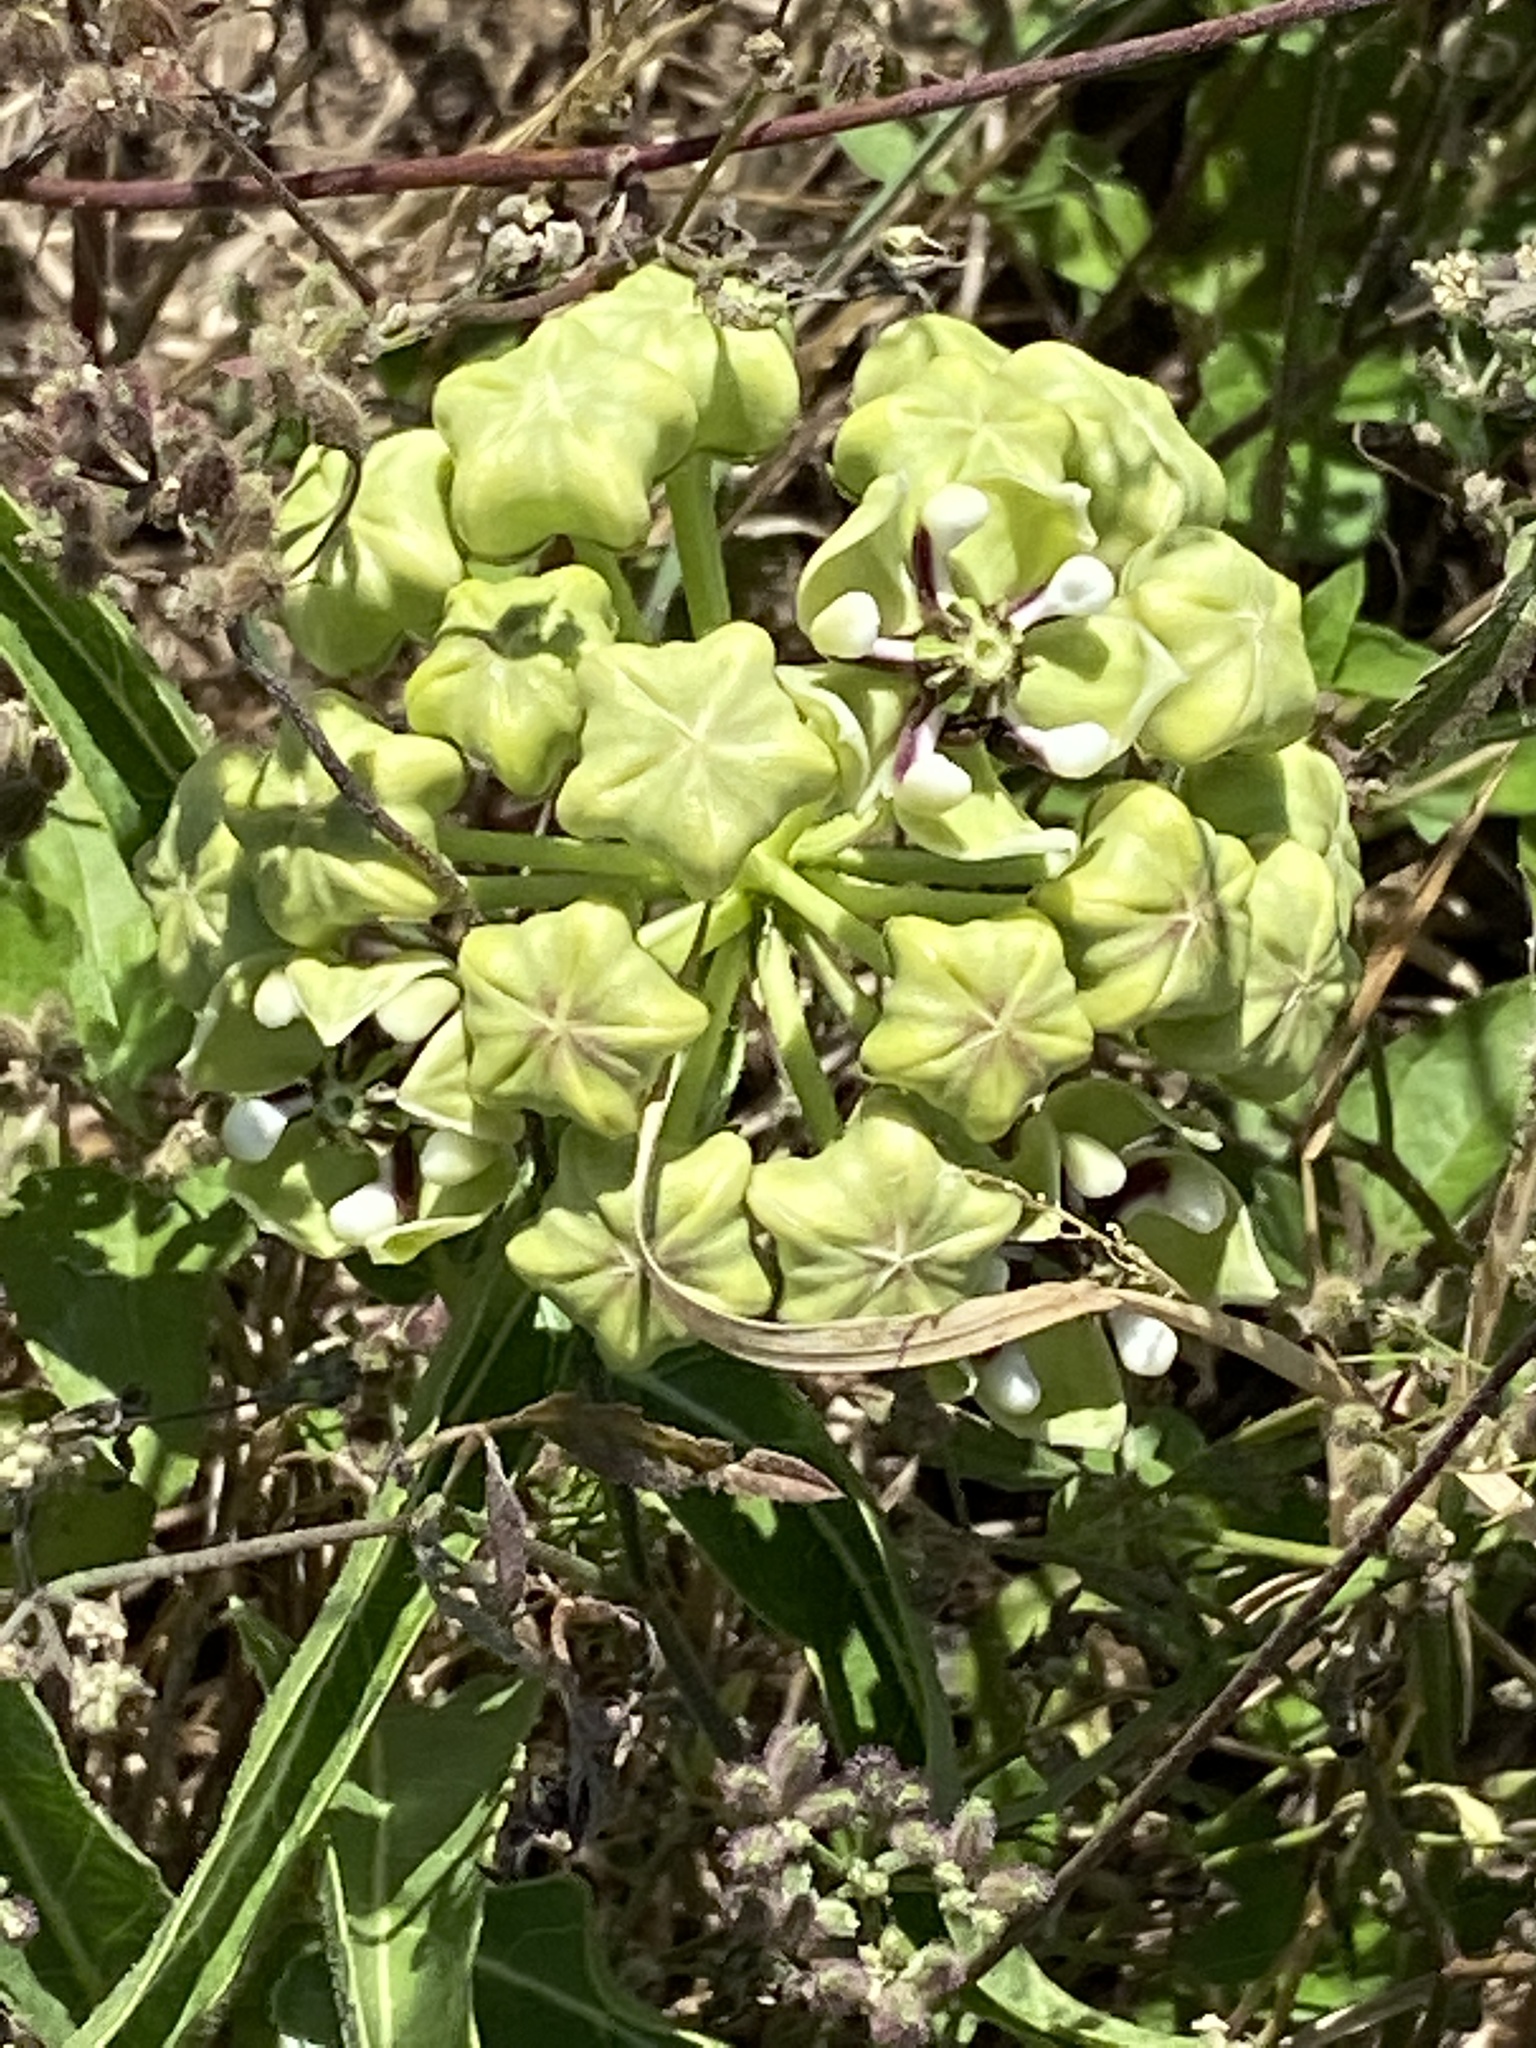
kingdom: Plantae
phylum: Tracheophyta
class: Magnoliopsida
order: Gentianales
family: Apocynaceae
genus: Asclepias
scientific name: Asclepias asperula
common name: Antelope horns
